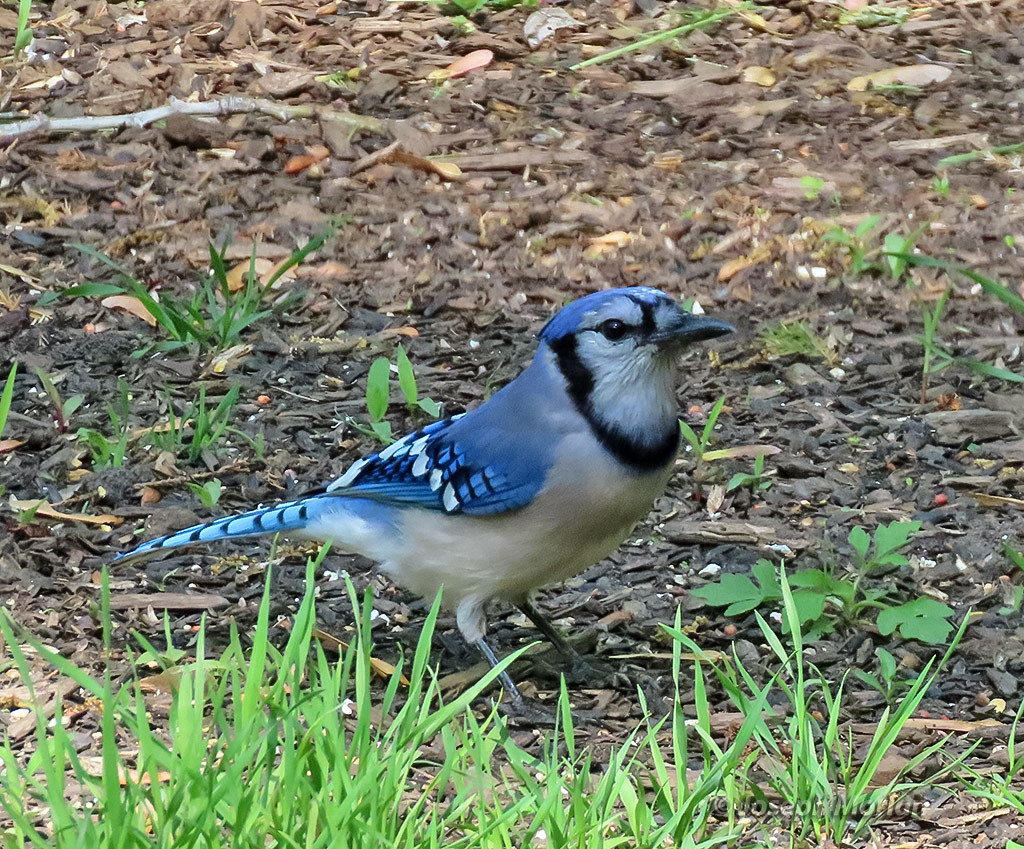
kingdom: Animalia
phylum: Chordata
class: Aves
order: Passeriformes
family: Corvidae
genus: Cyanocitta
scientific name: Cyanocitta cristata
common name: Blue jay
